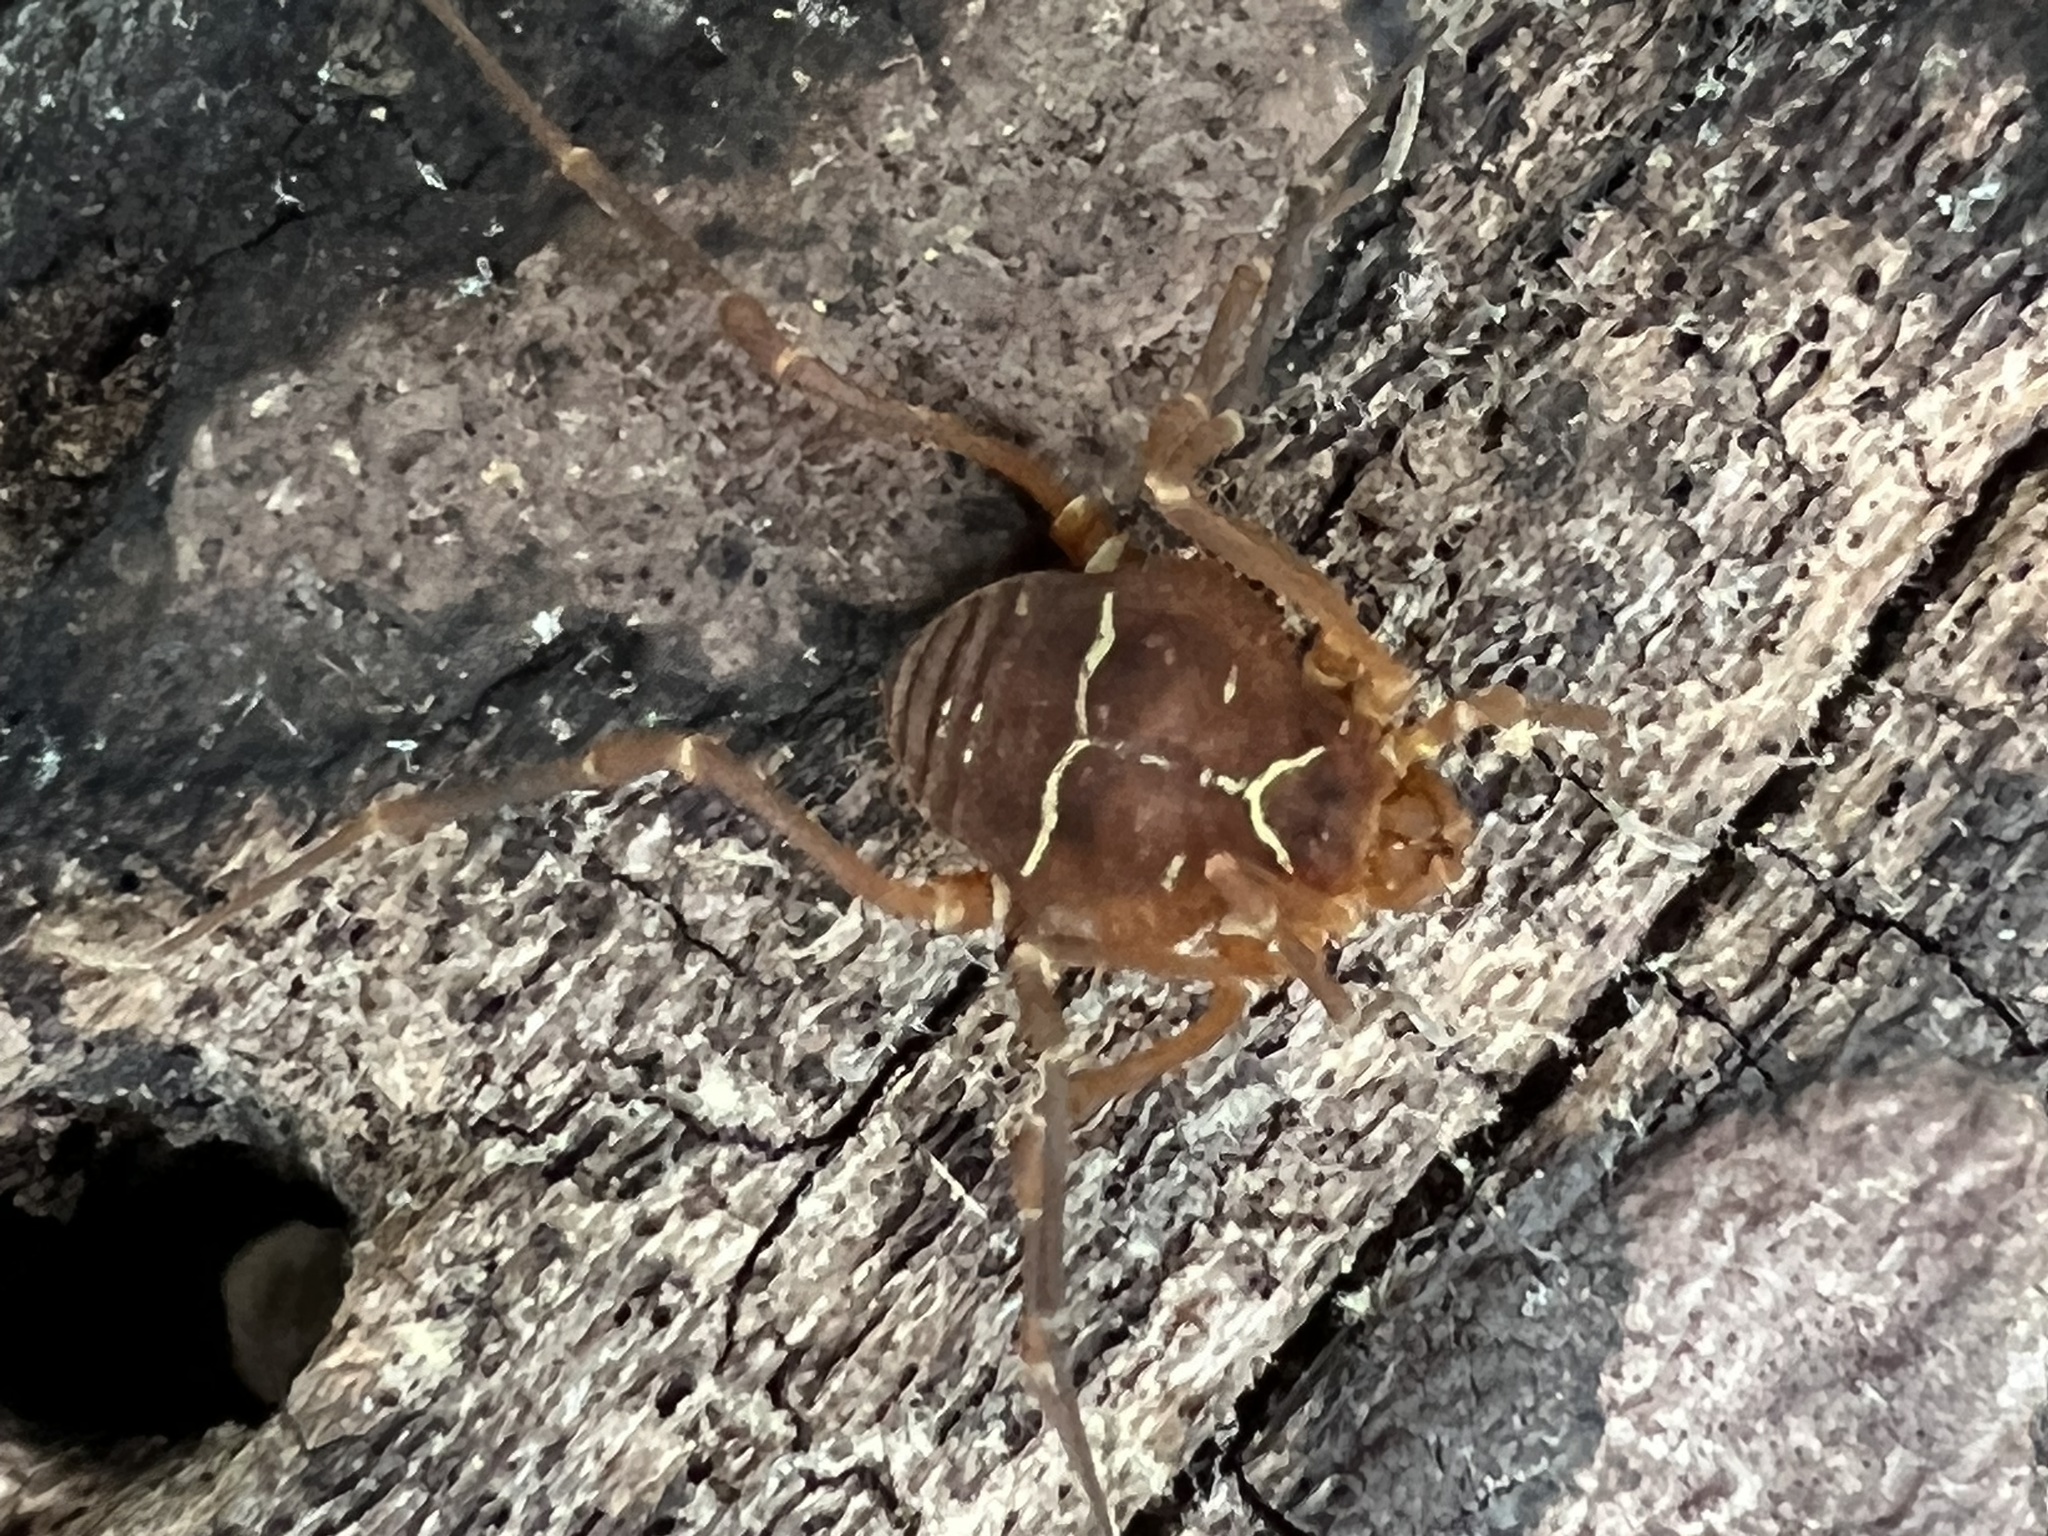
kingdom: Animalia
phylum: Arthropoda
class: Arachnida
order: Opiliones
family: Cosmetidae
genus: Libitioides
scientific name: Libitioides sayi
